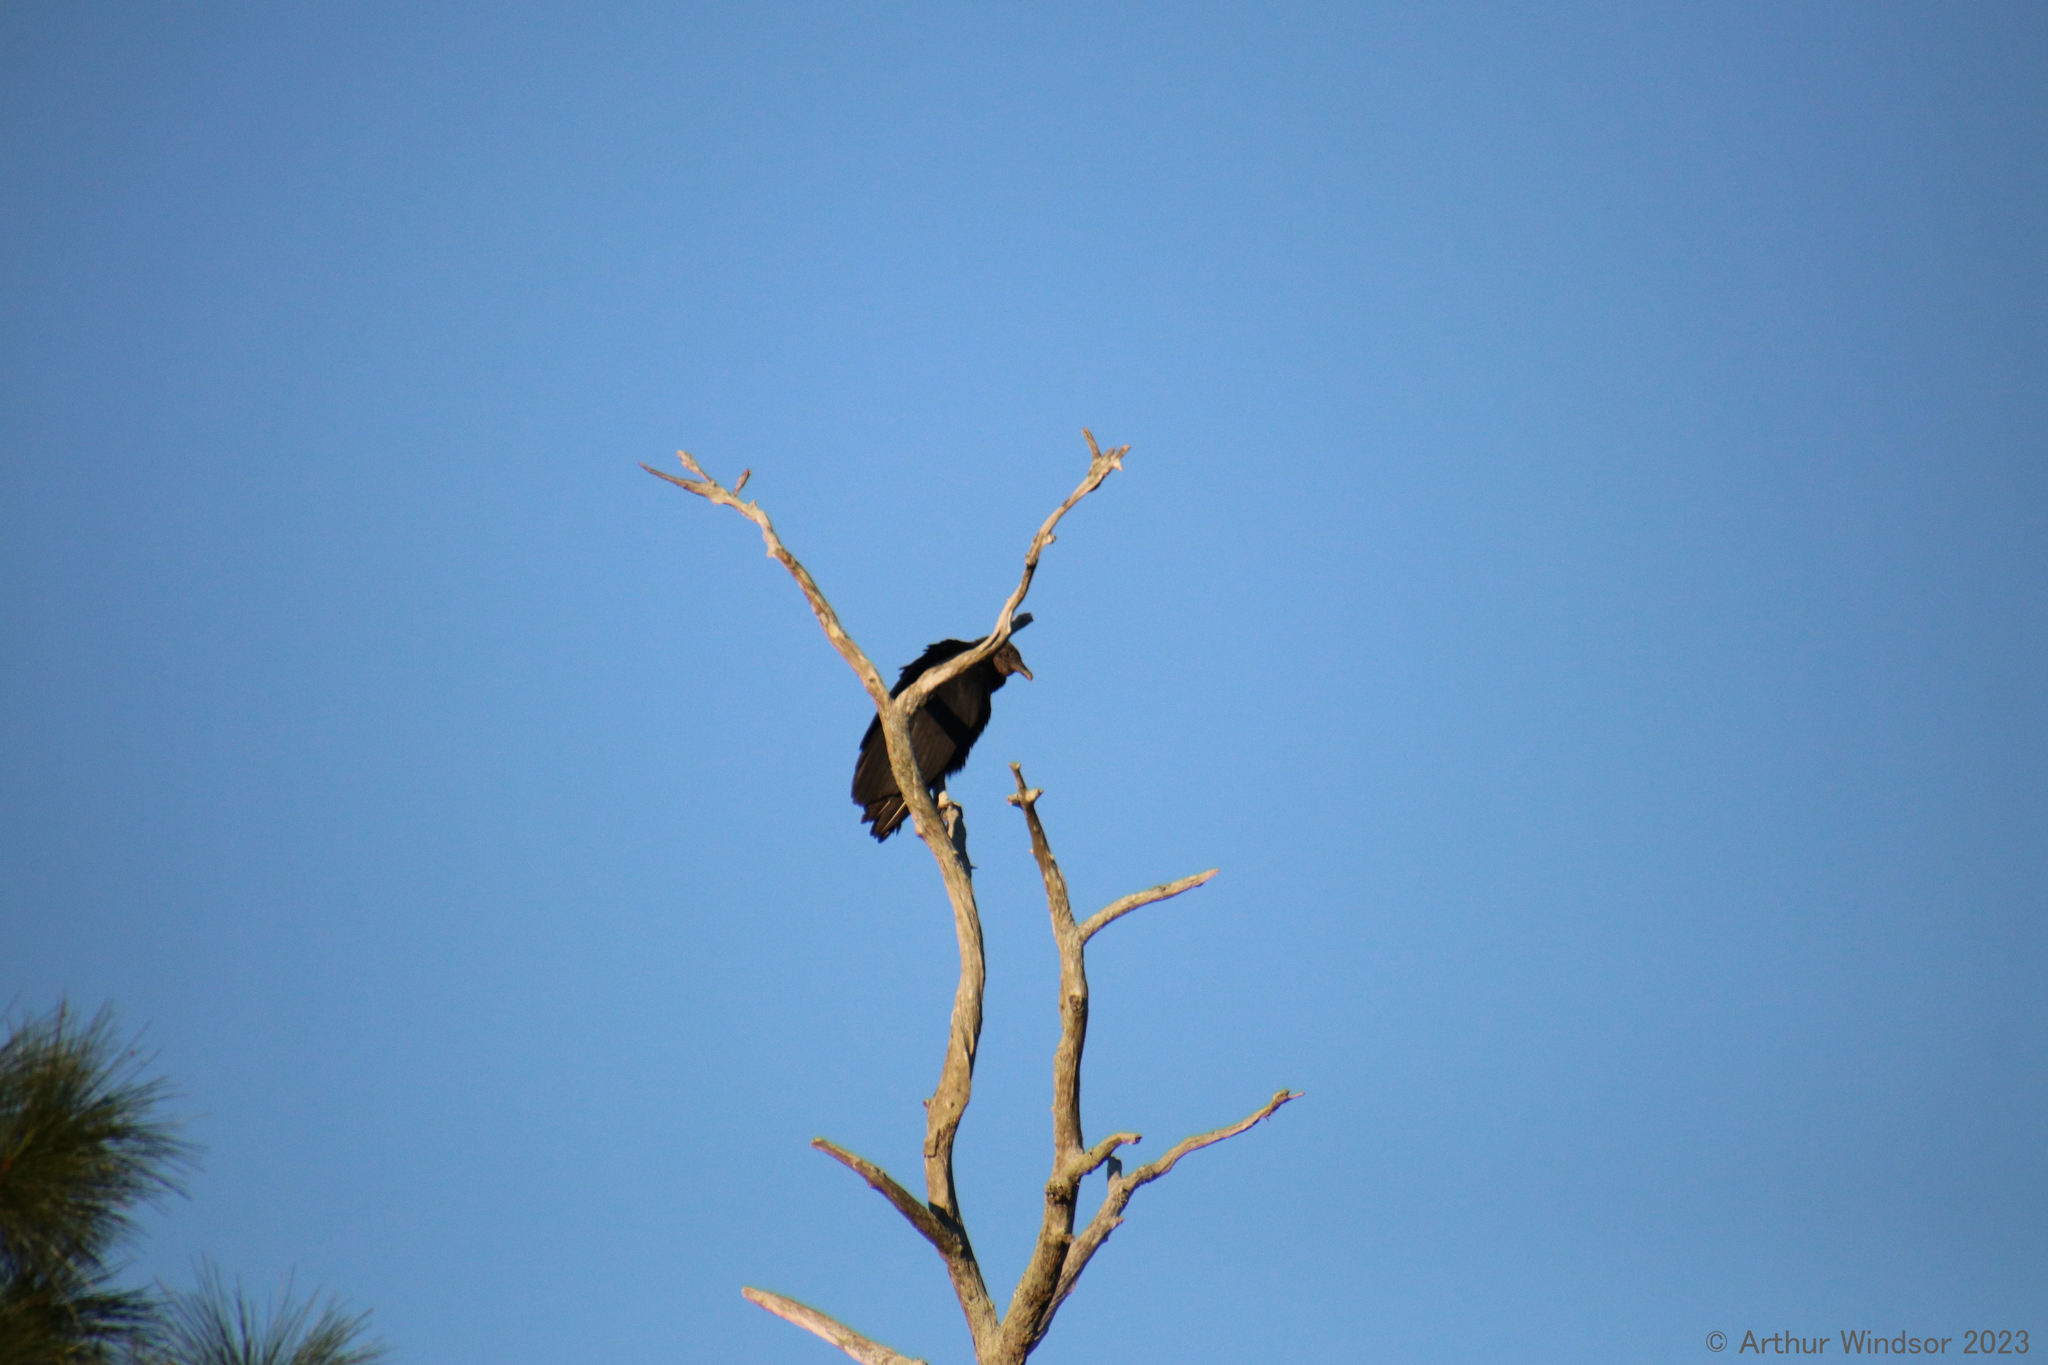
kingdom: Animalia
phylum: Chordata
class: Aves
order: Accipitriformes
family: Cathartidae
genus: Coragyps
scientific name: Coragyps atratus
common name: Black vulture
